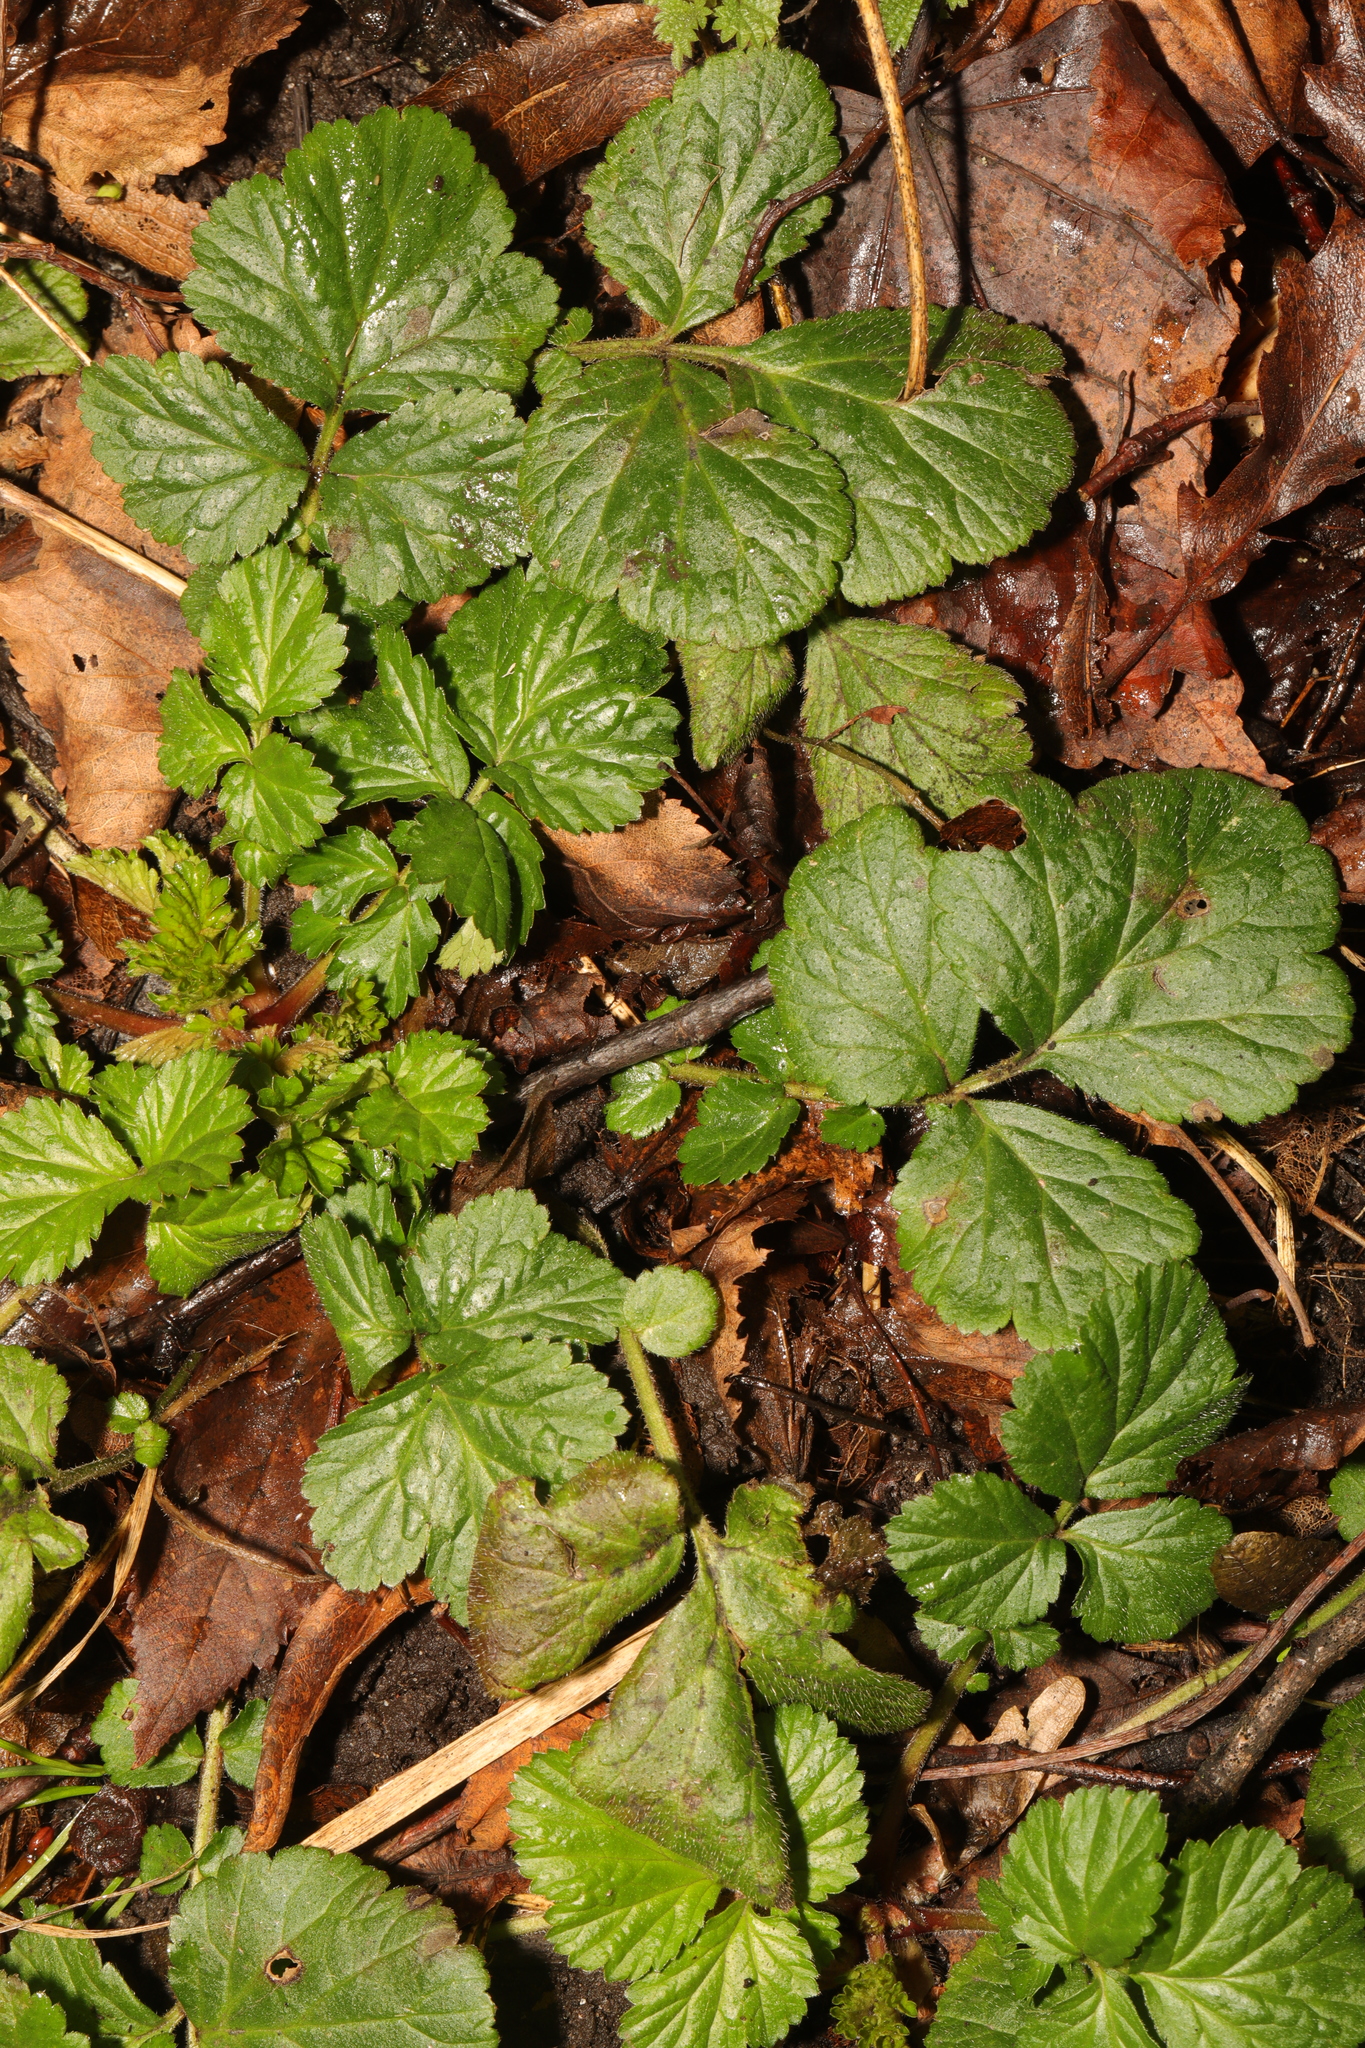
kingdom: Plantae
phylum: Tracheophyta
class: Magnoliopsida
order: Rosales
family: Rosaceae
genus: Geum
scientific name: Geum urbanum
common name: Wood avens
